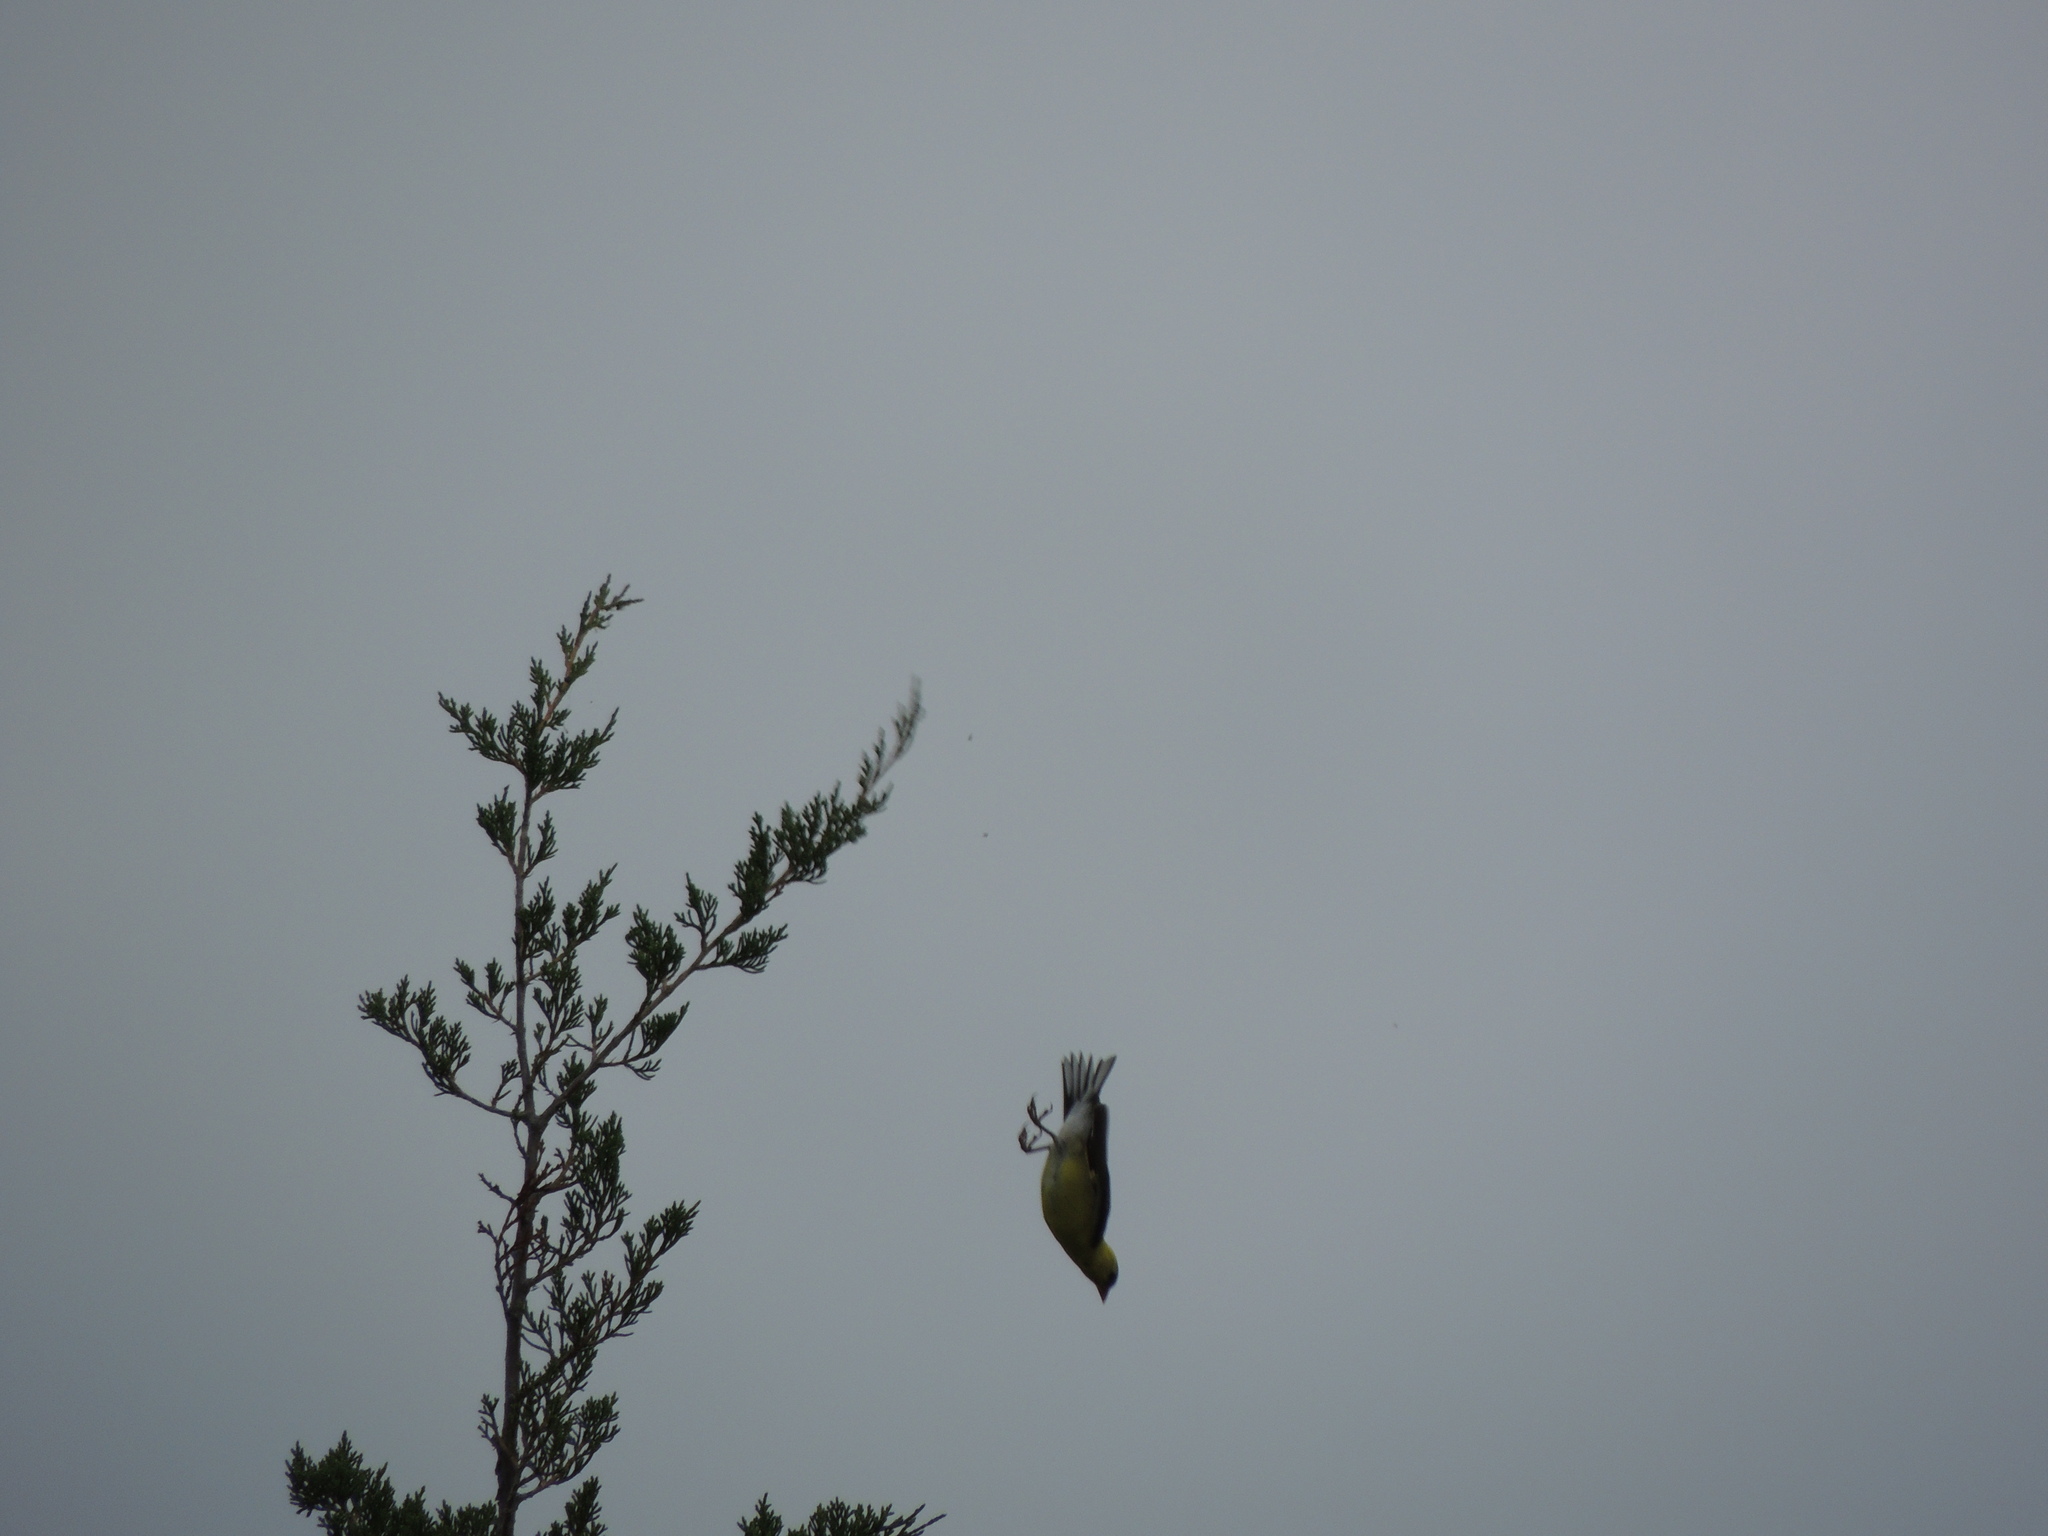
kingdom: Animalia
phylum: Chordata
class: Aves
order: Passeriformes
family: Fringillidae
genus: Spinus
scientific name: Spinus tristis
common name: American goldfinch
